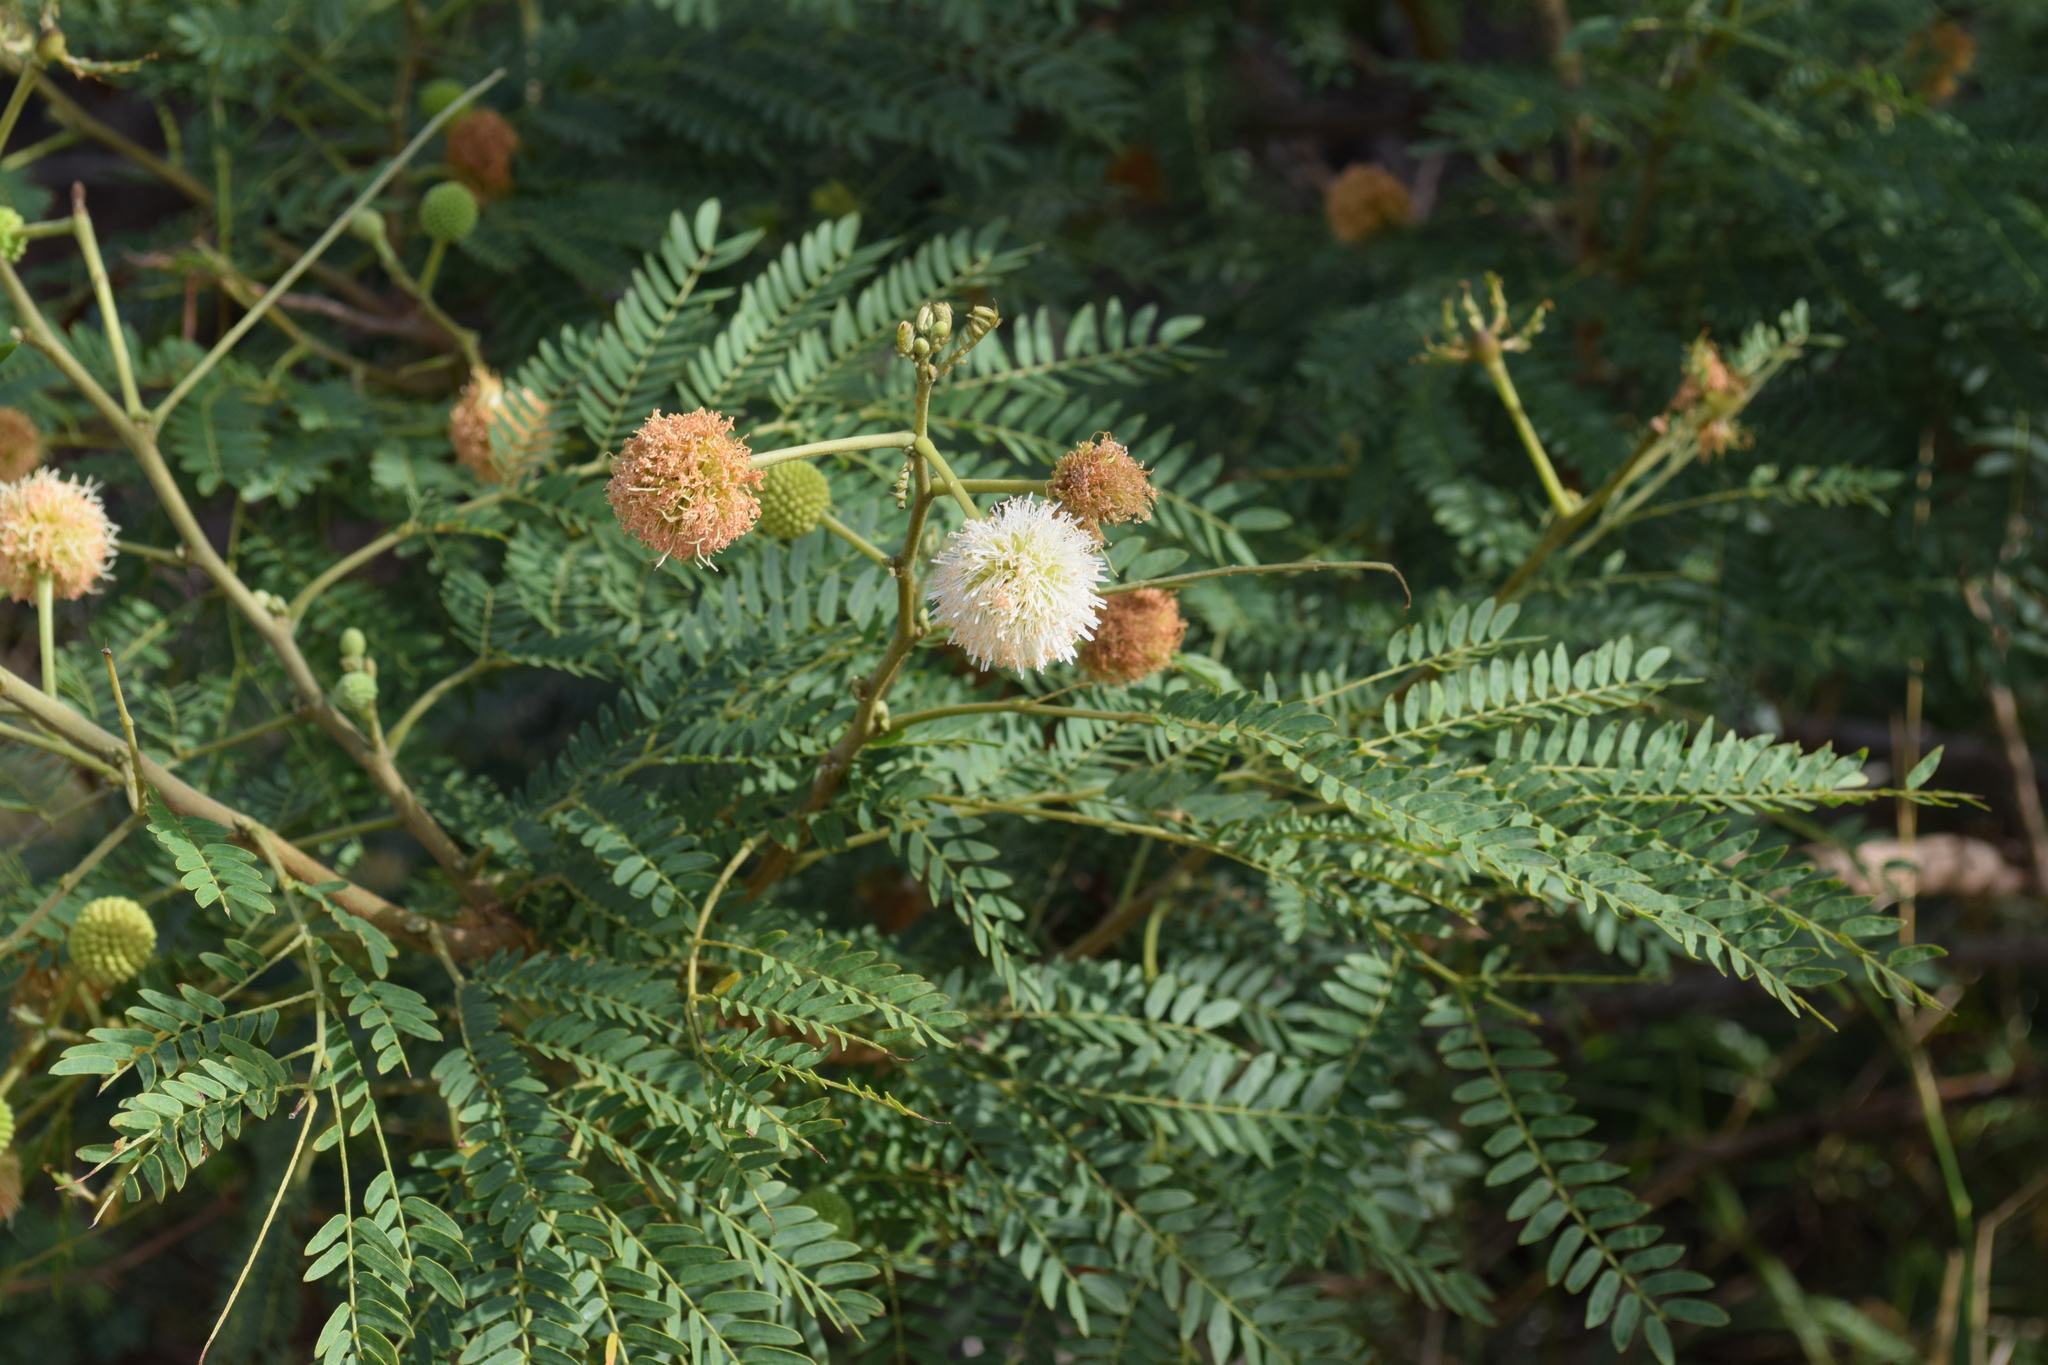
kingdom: Plantae
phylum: Tracheophyta
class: Magnoliopsida
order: Fabales
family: Fabaceae
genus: Leucaena
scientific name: Leucaena leucocephala
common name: White leadtree
